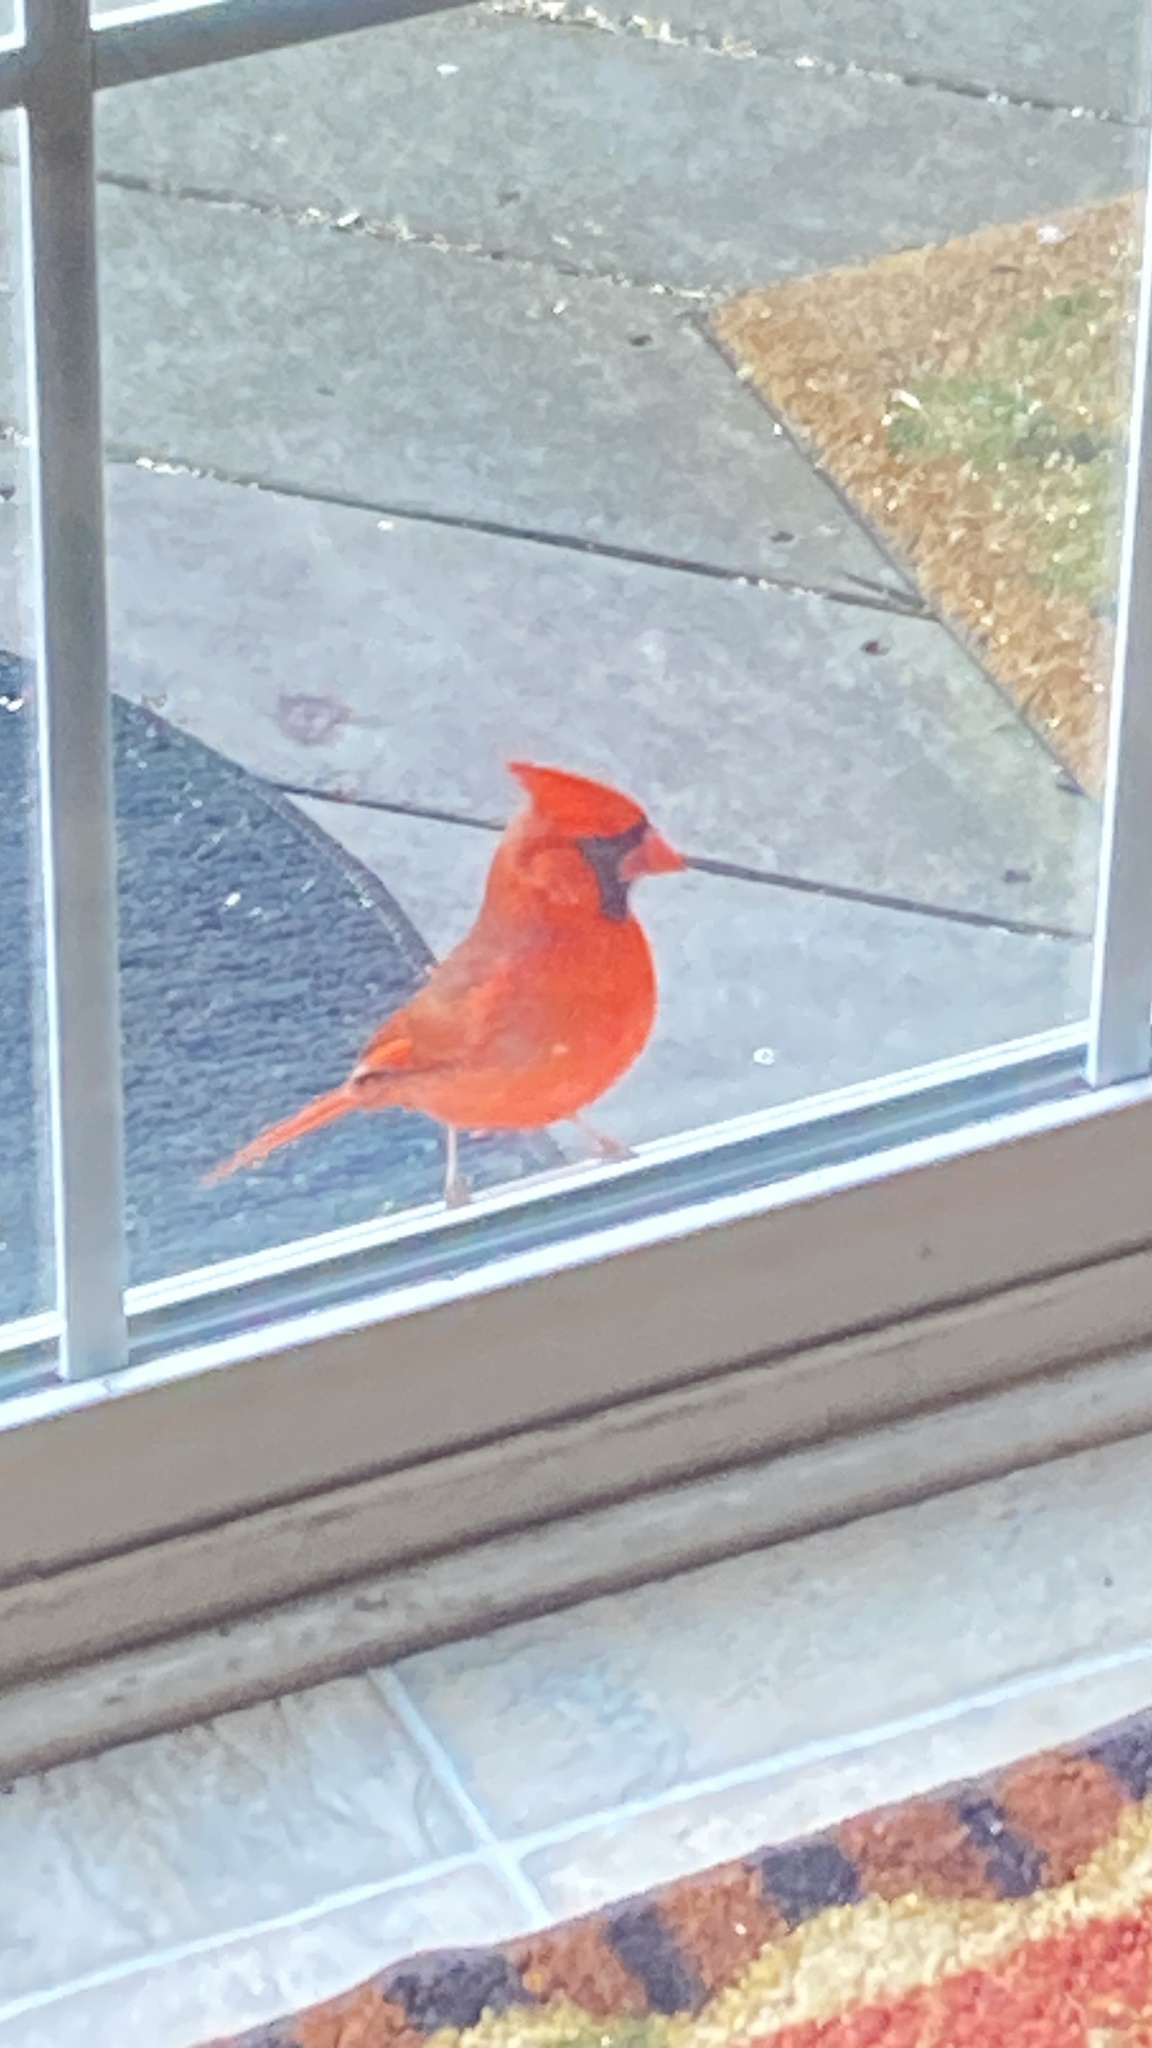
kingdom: Animalia
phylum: Chordata
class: Aves
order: Passeriformes
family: Cardinalidae
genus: Cardinalis
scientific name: Cardinalis cardinalis
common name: Northern cardinal
